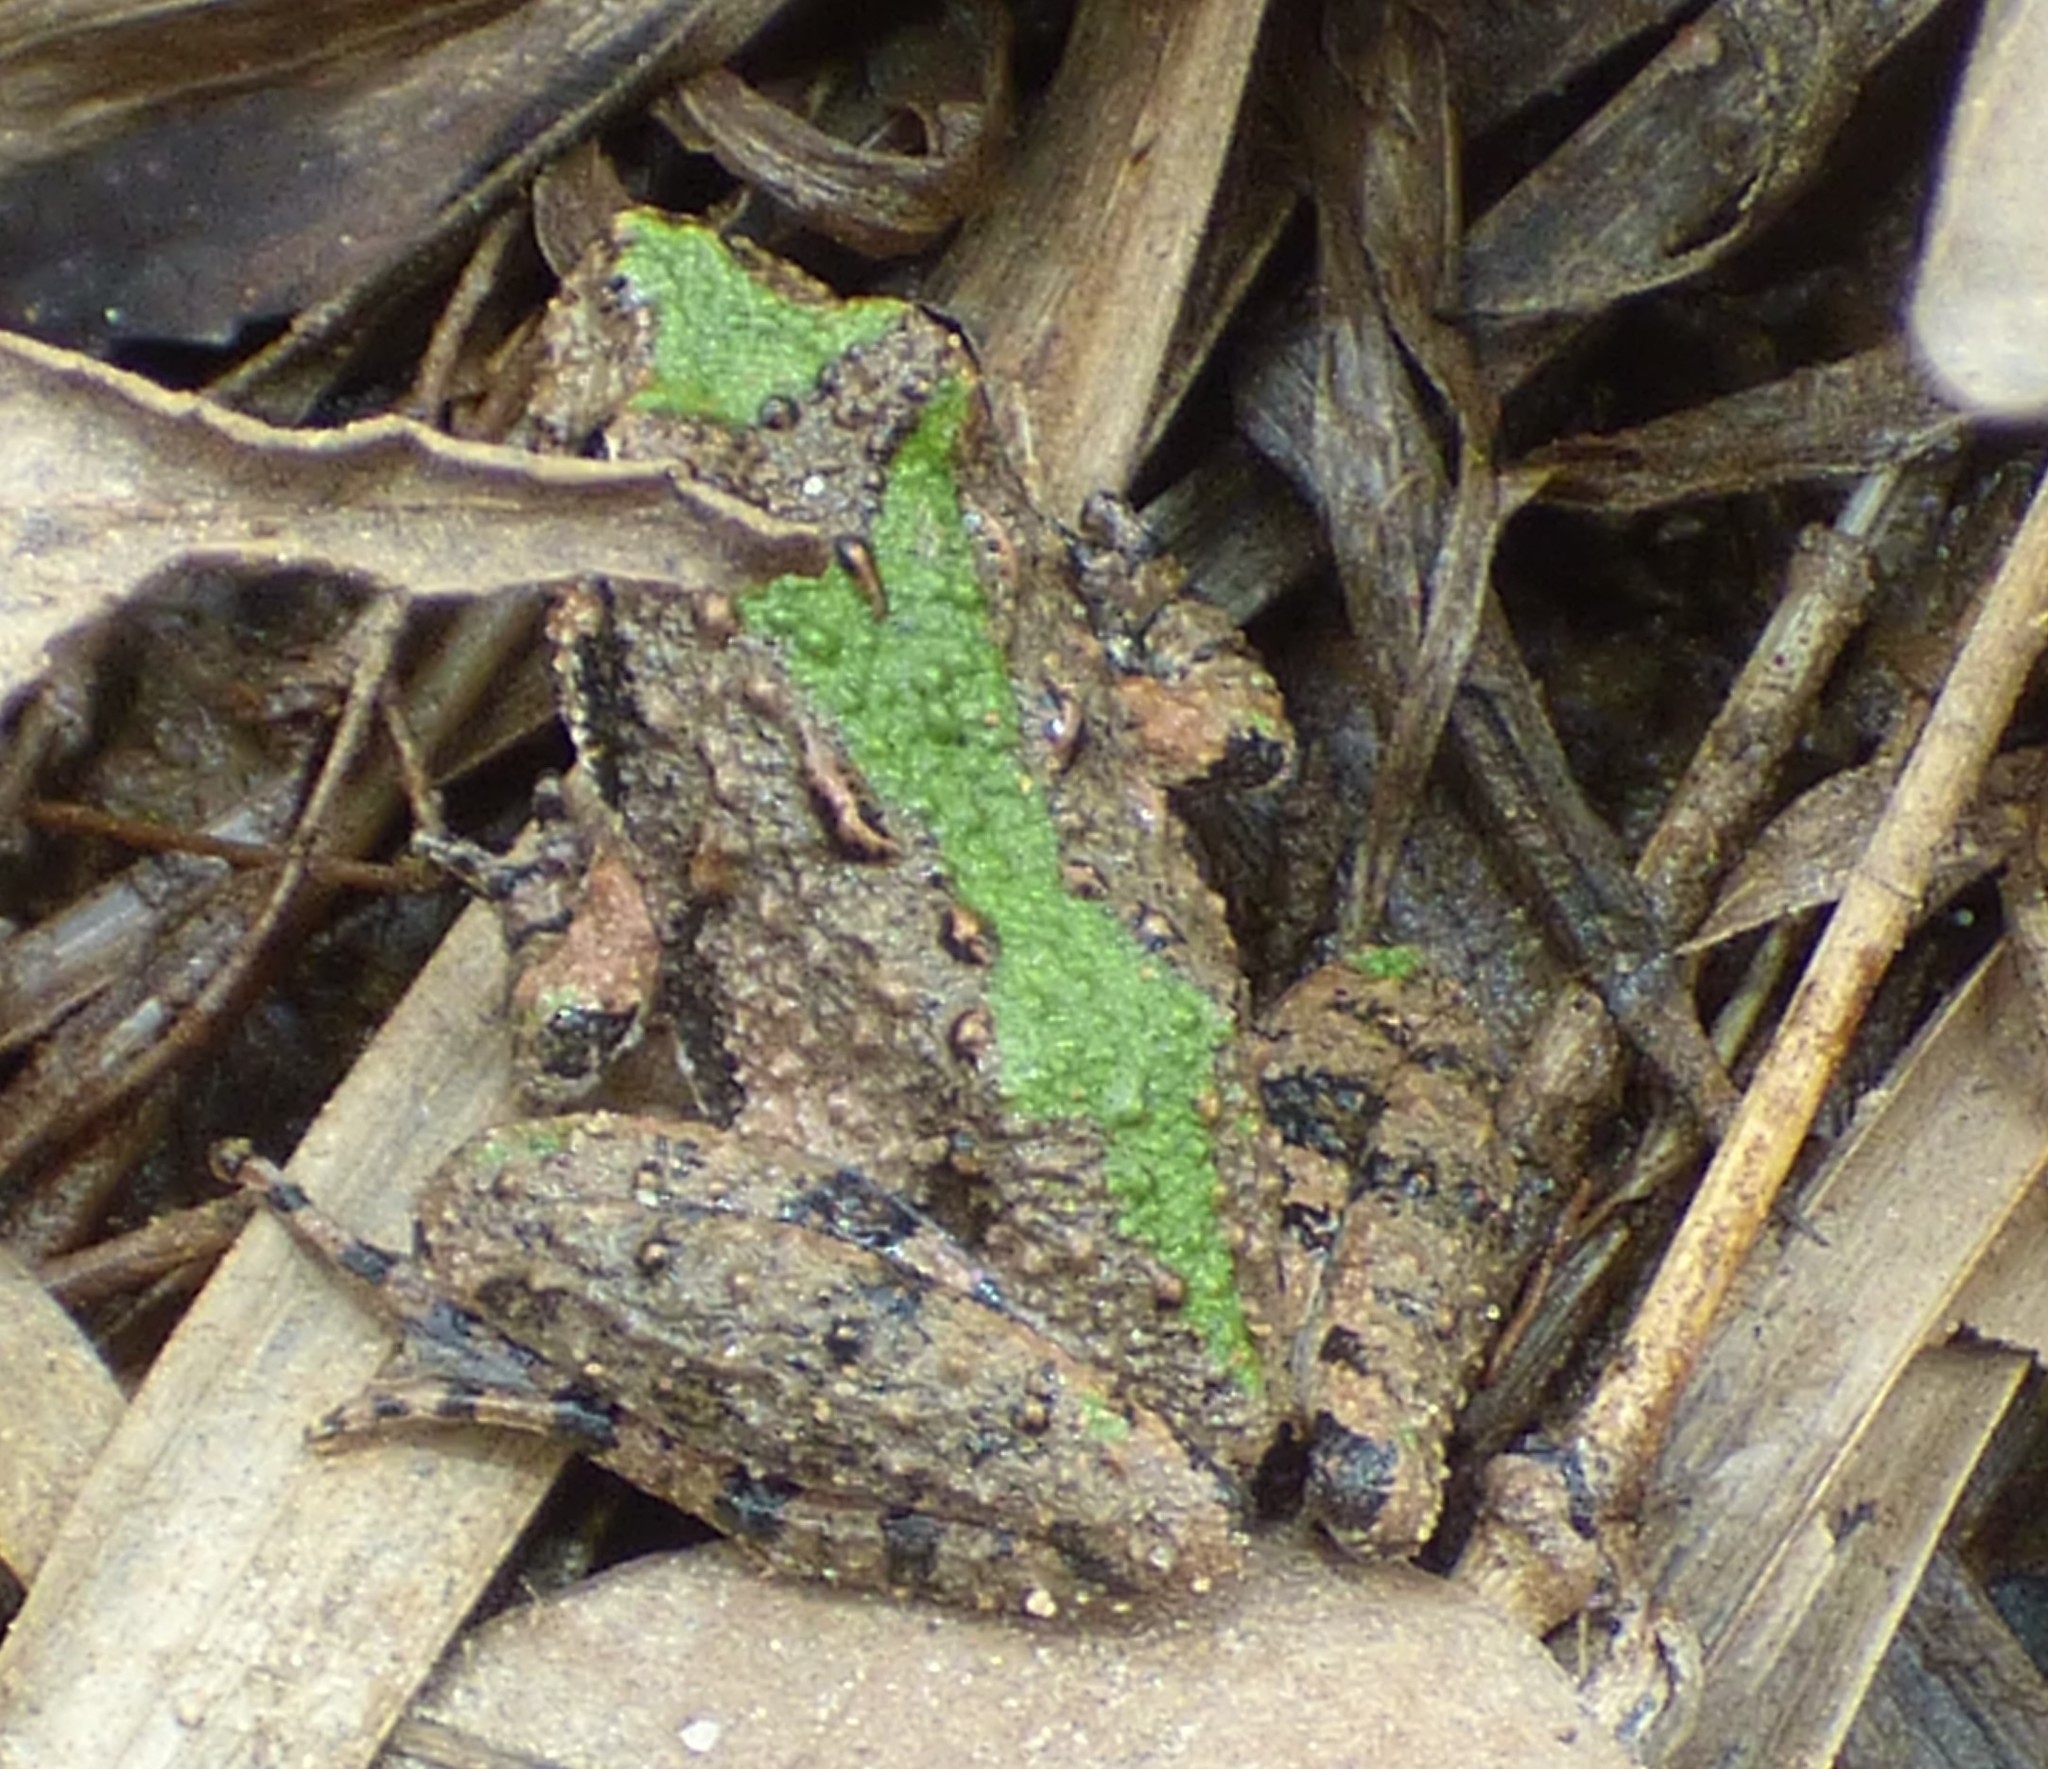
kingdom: Animalia
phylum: Chordata
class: Amphibia
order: Anura
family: Hylidae
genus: Acris
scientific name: Acris crepitans
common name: Northern cricket frog
